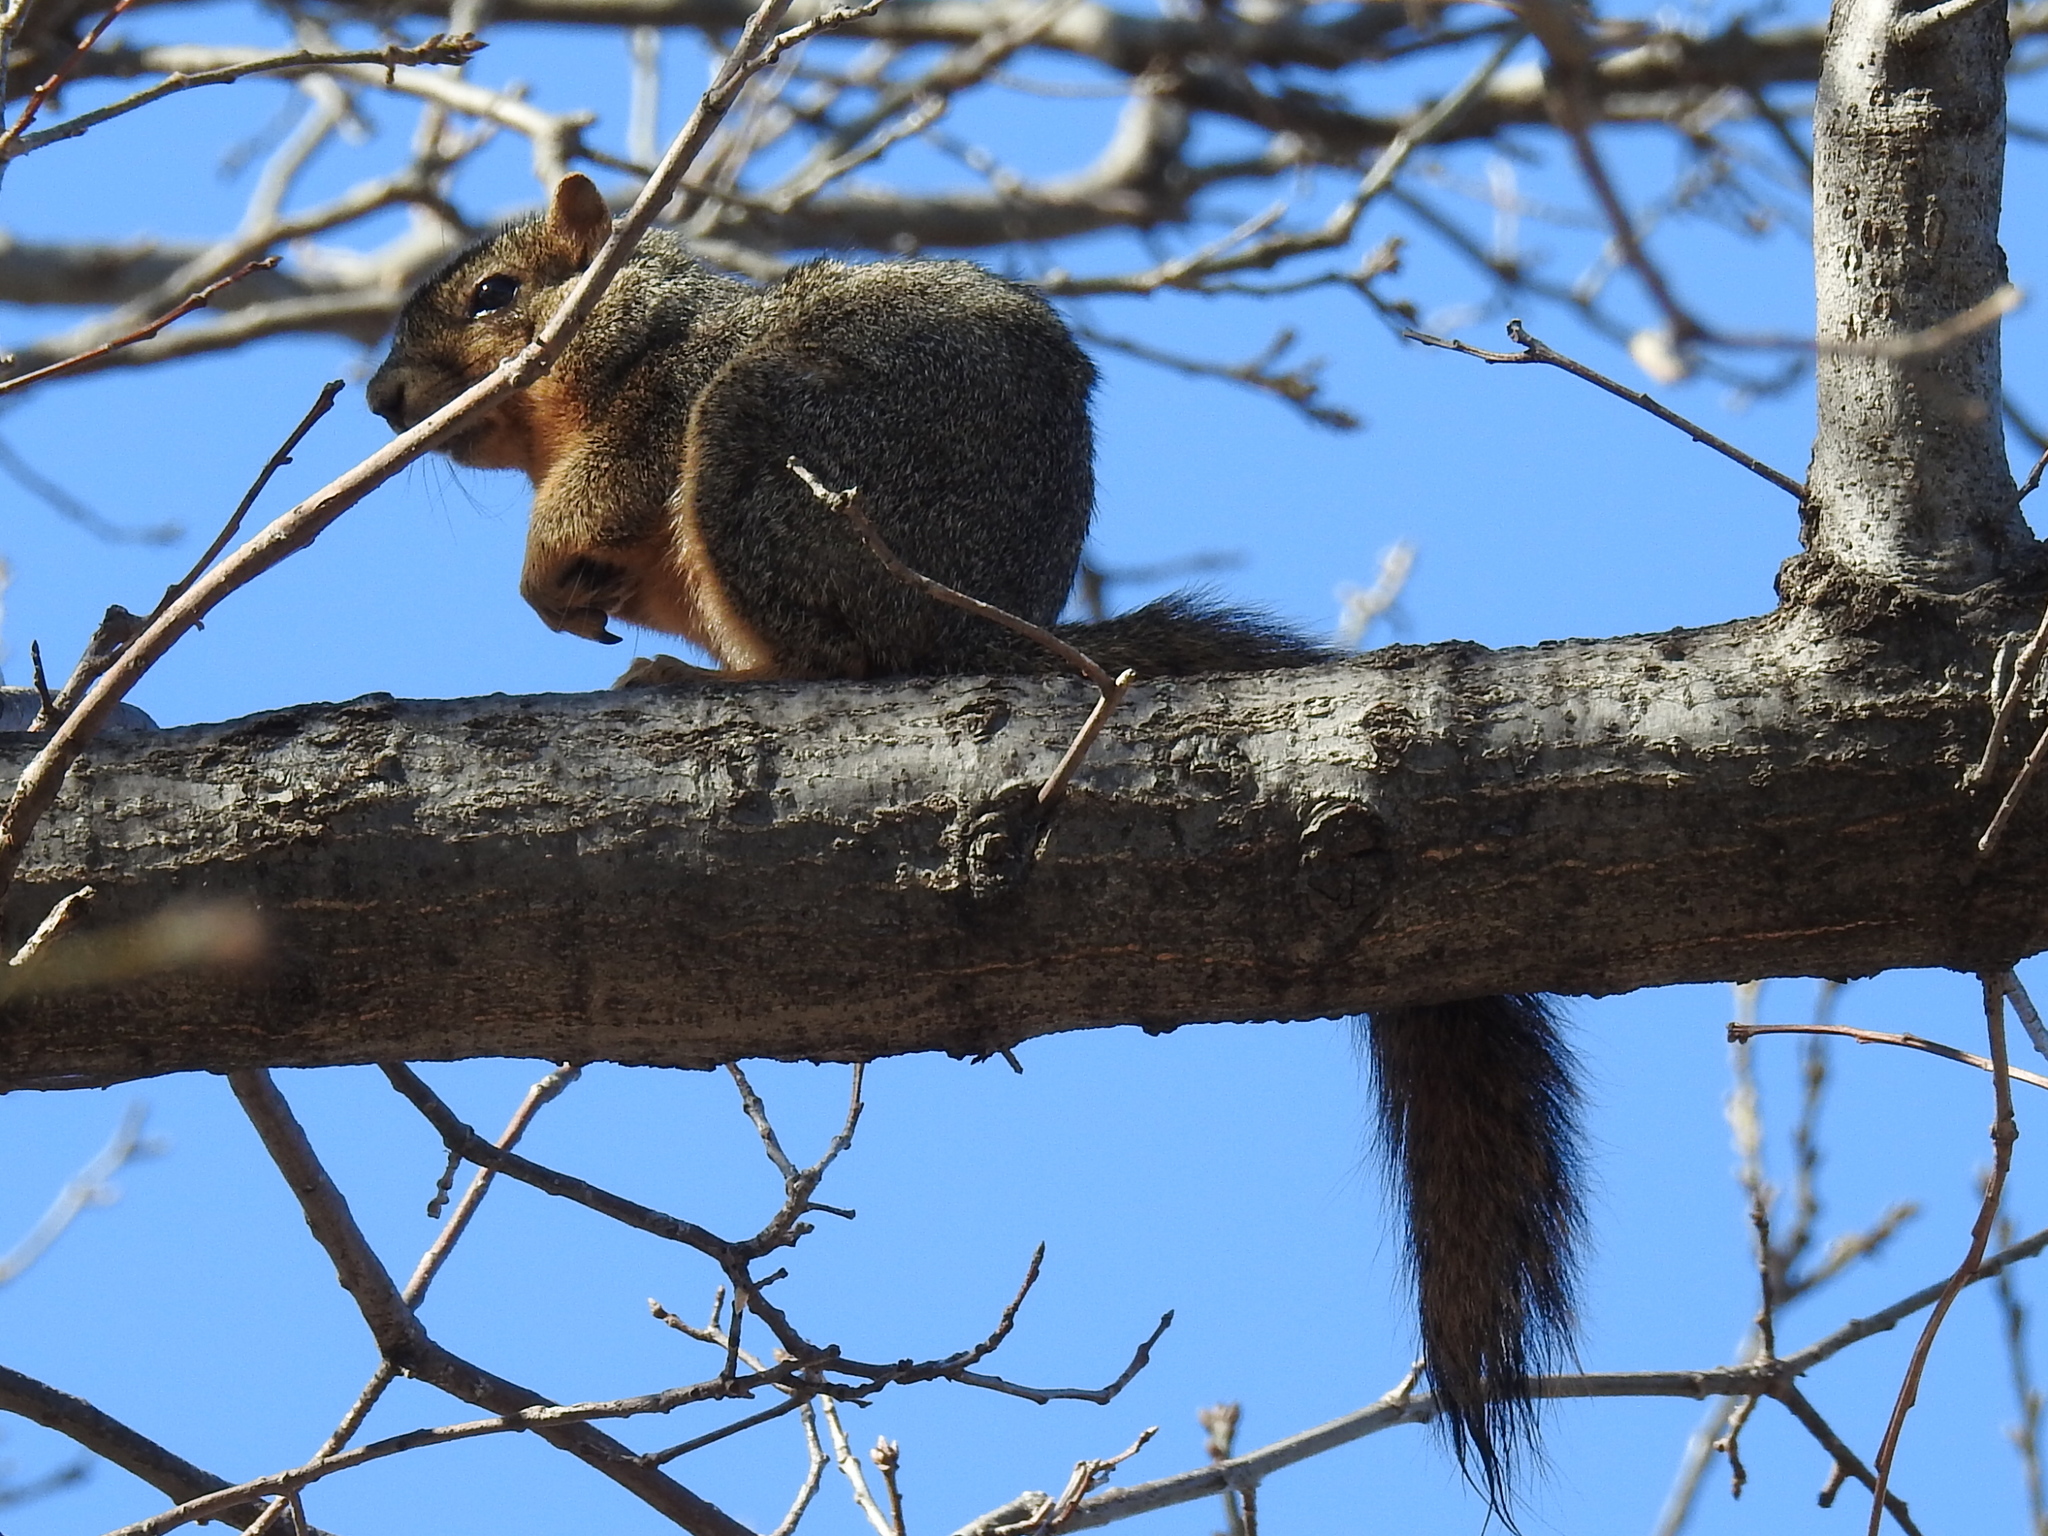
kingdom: Animalia
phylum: Chordata
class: Mammalia
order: Rodentia
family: Sciuridae
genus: Sciurus
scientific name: Sciurus niger
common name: Fox squirrel
